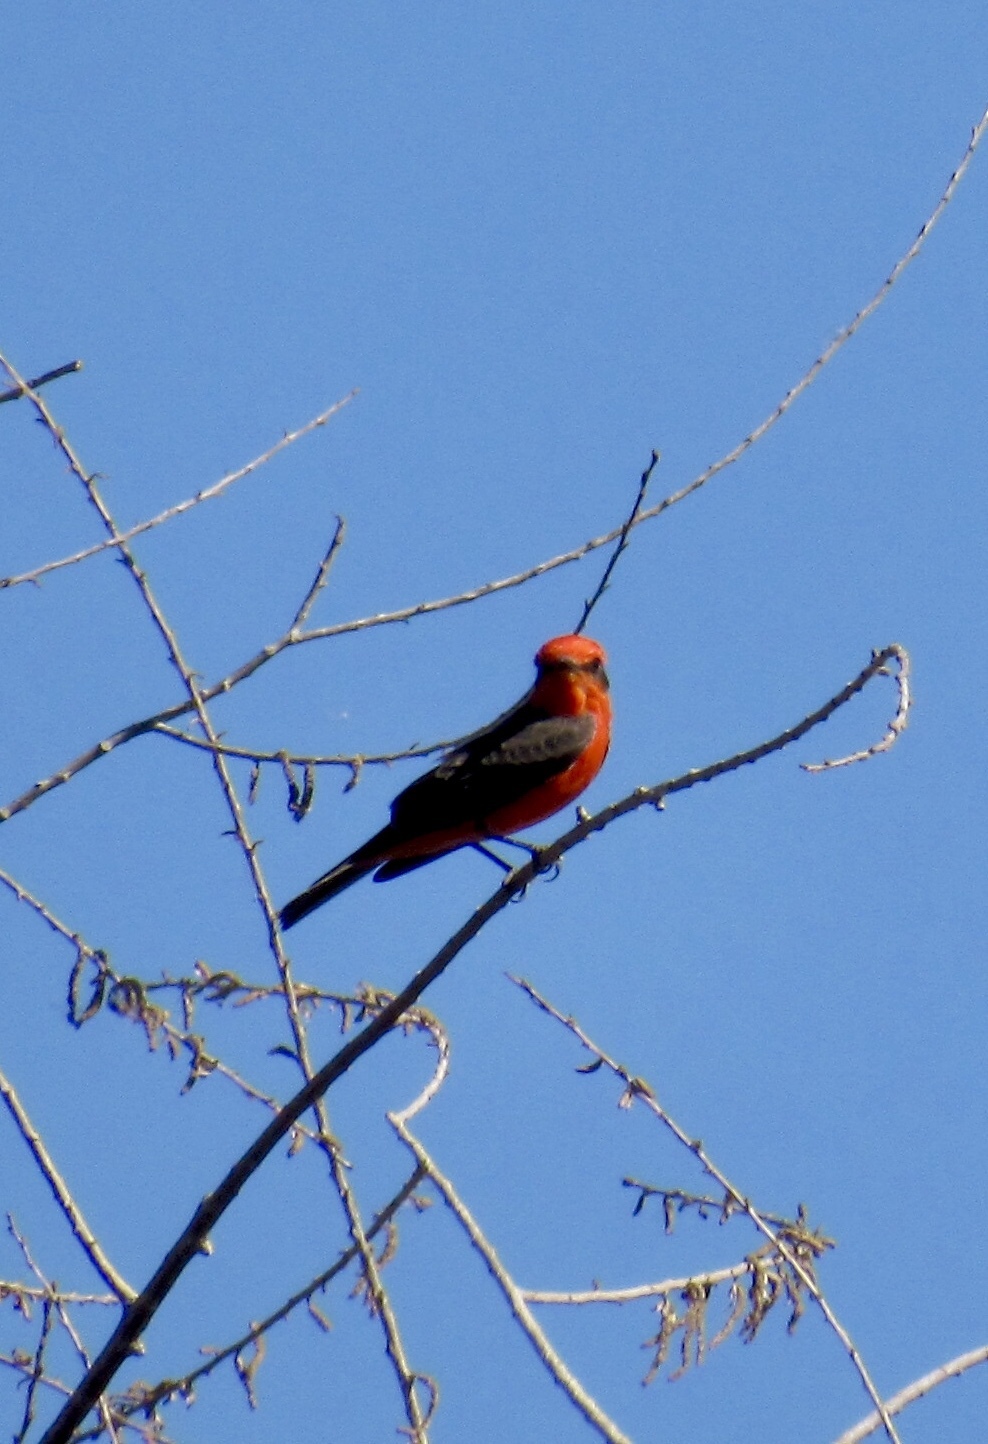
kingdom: Animalia
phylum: Chordata
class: Aves
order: Passeriformes
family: Tyrannidae
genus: Pyrocephalus
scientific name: Pyrocephalus rubinus
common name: Vermilion flycatcher
